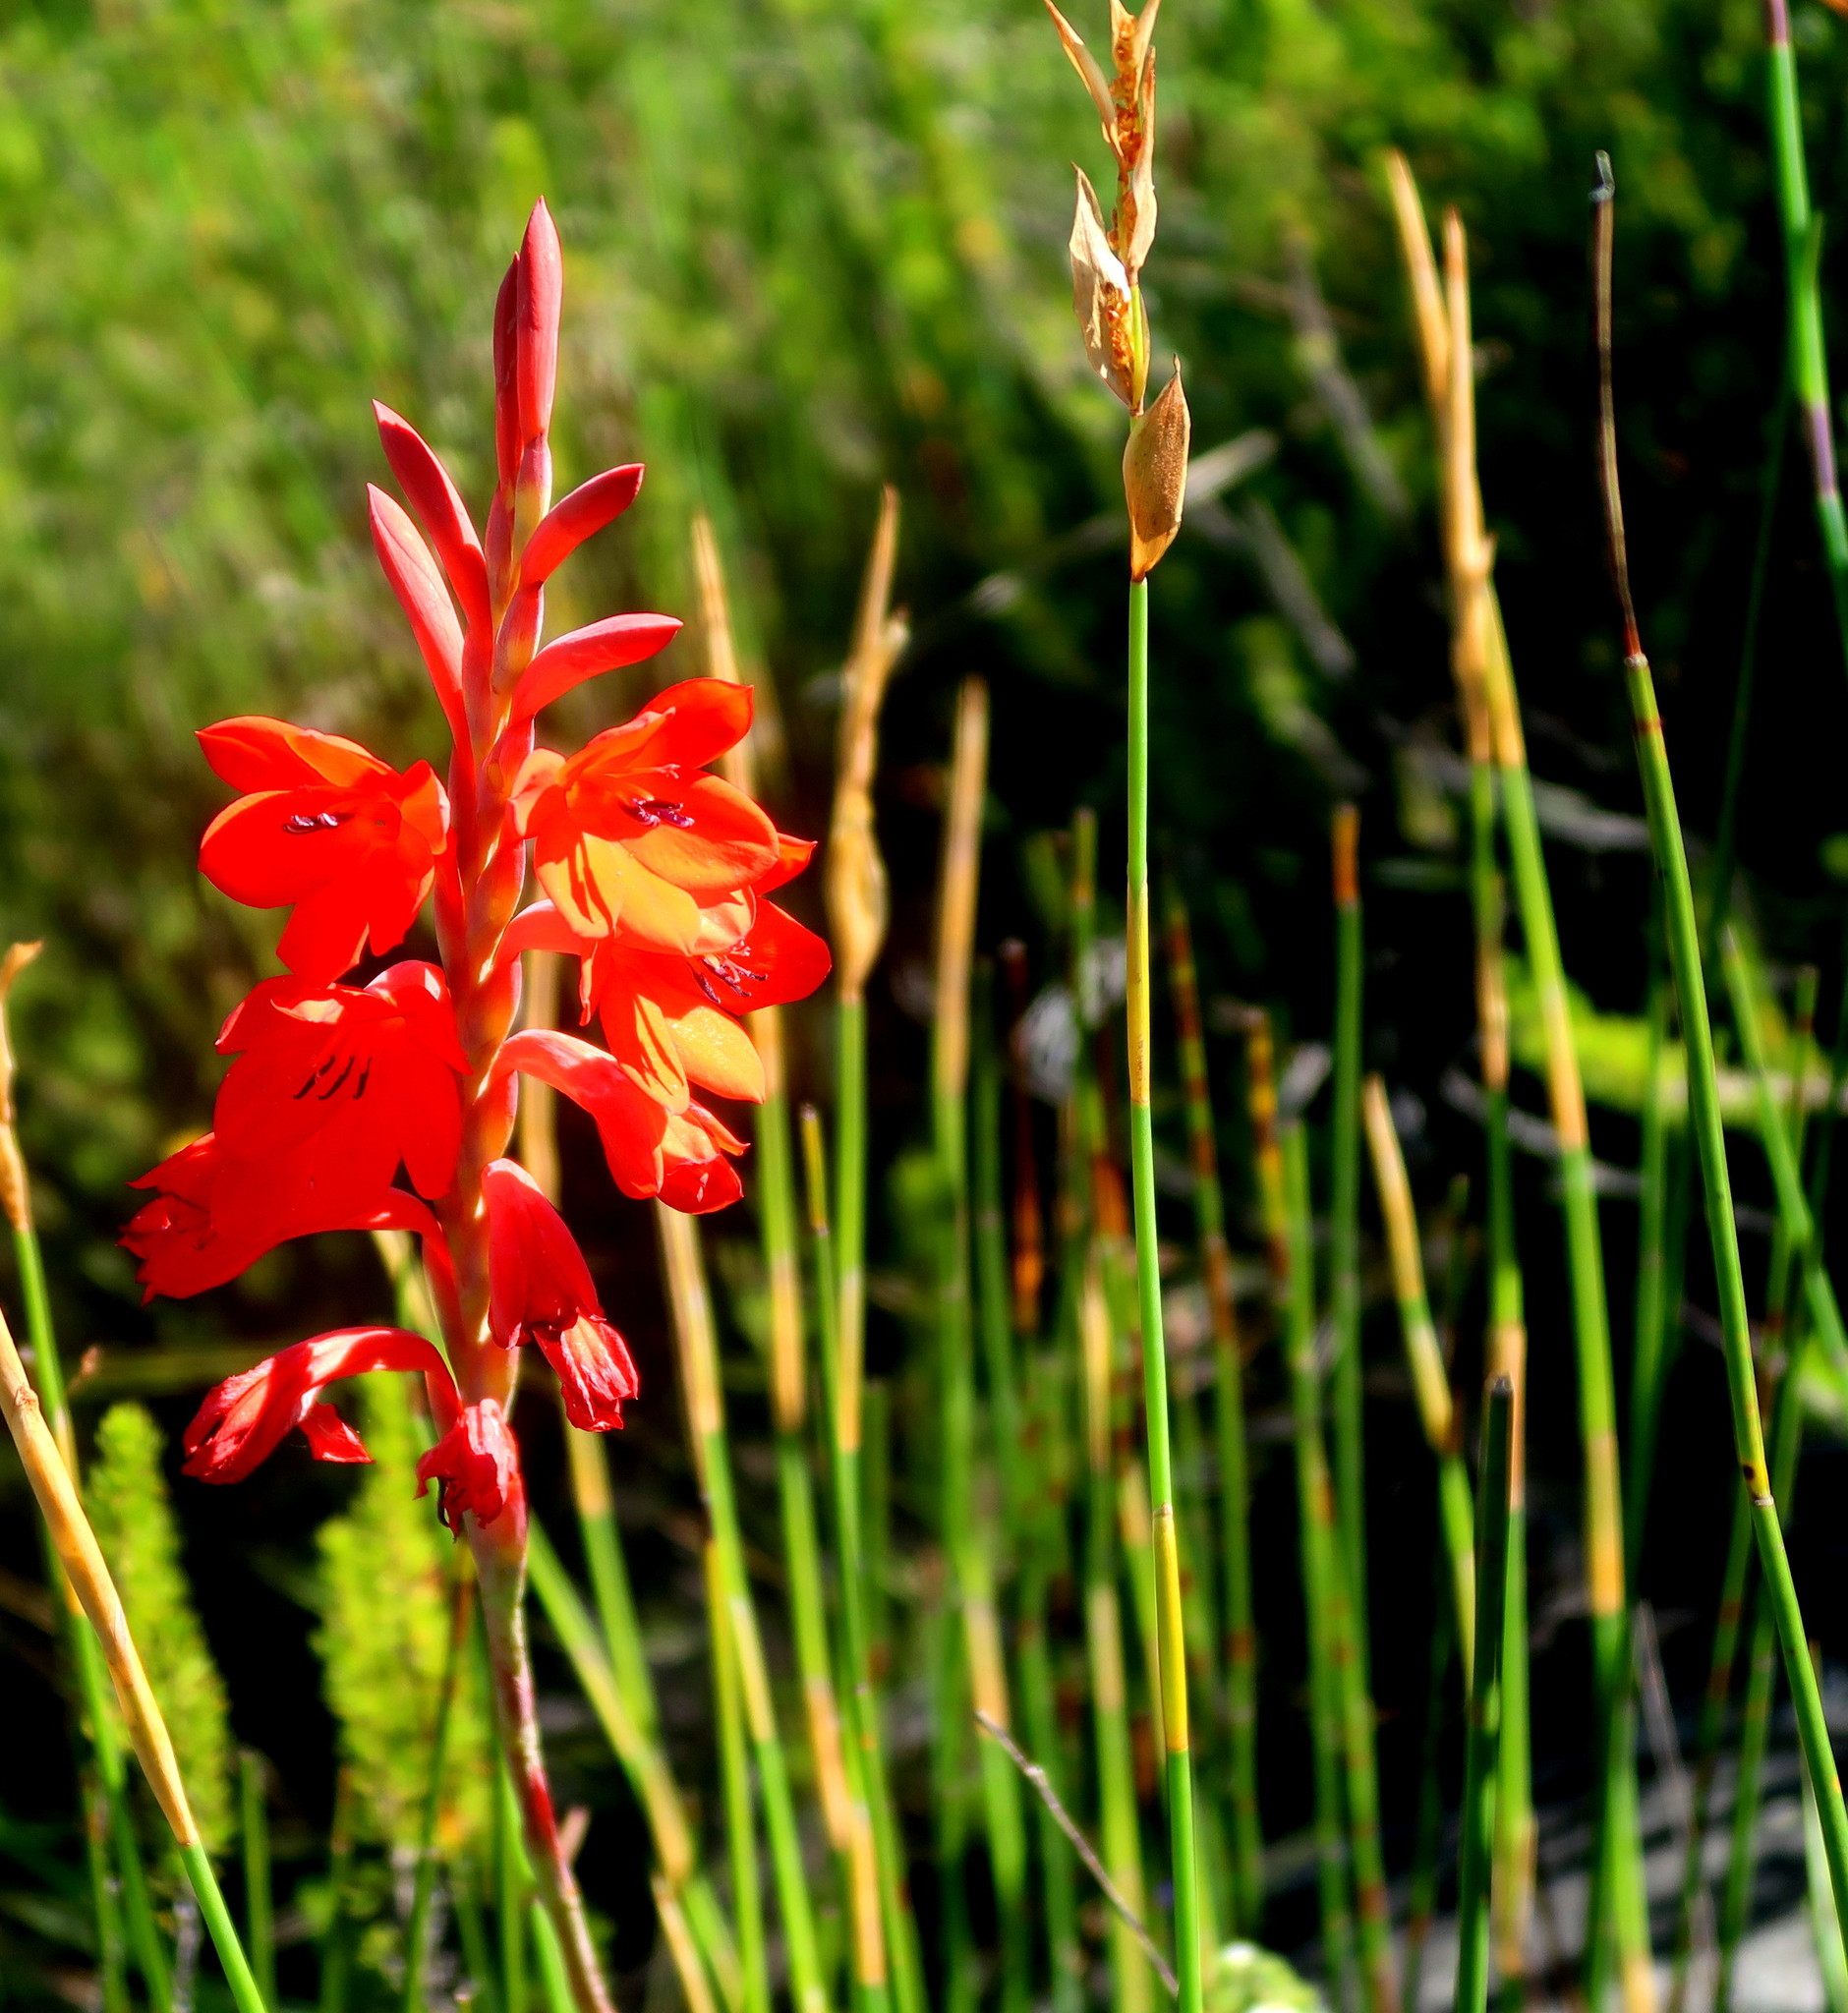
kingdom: Plantae
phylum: Tracheophyta
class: Liliopsida
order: Asparagales
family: Iridaceae
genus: Watsonia
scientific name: Watsonia galpinii
